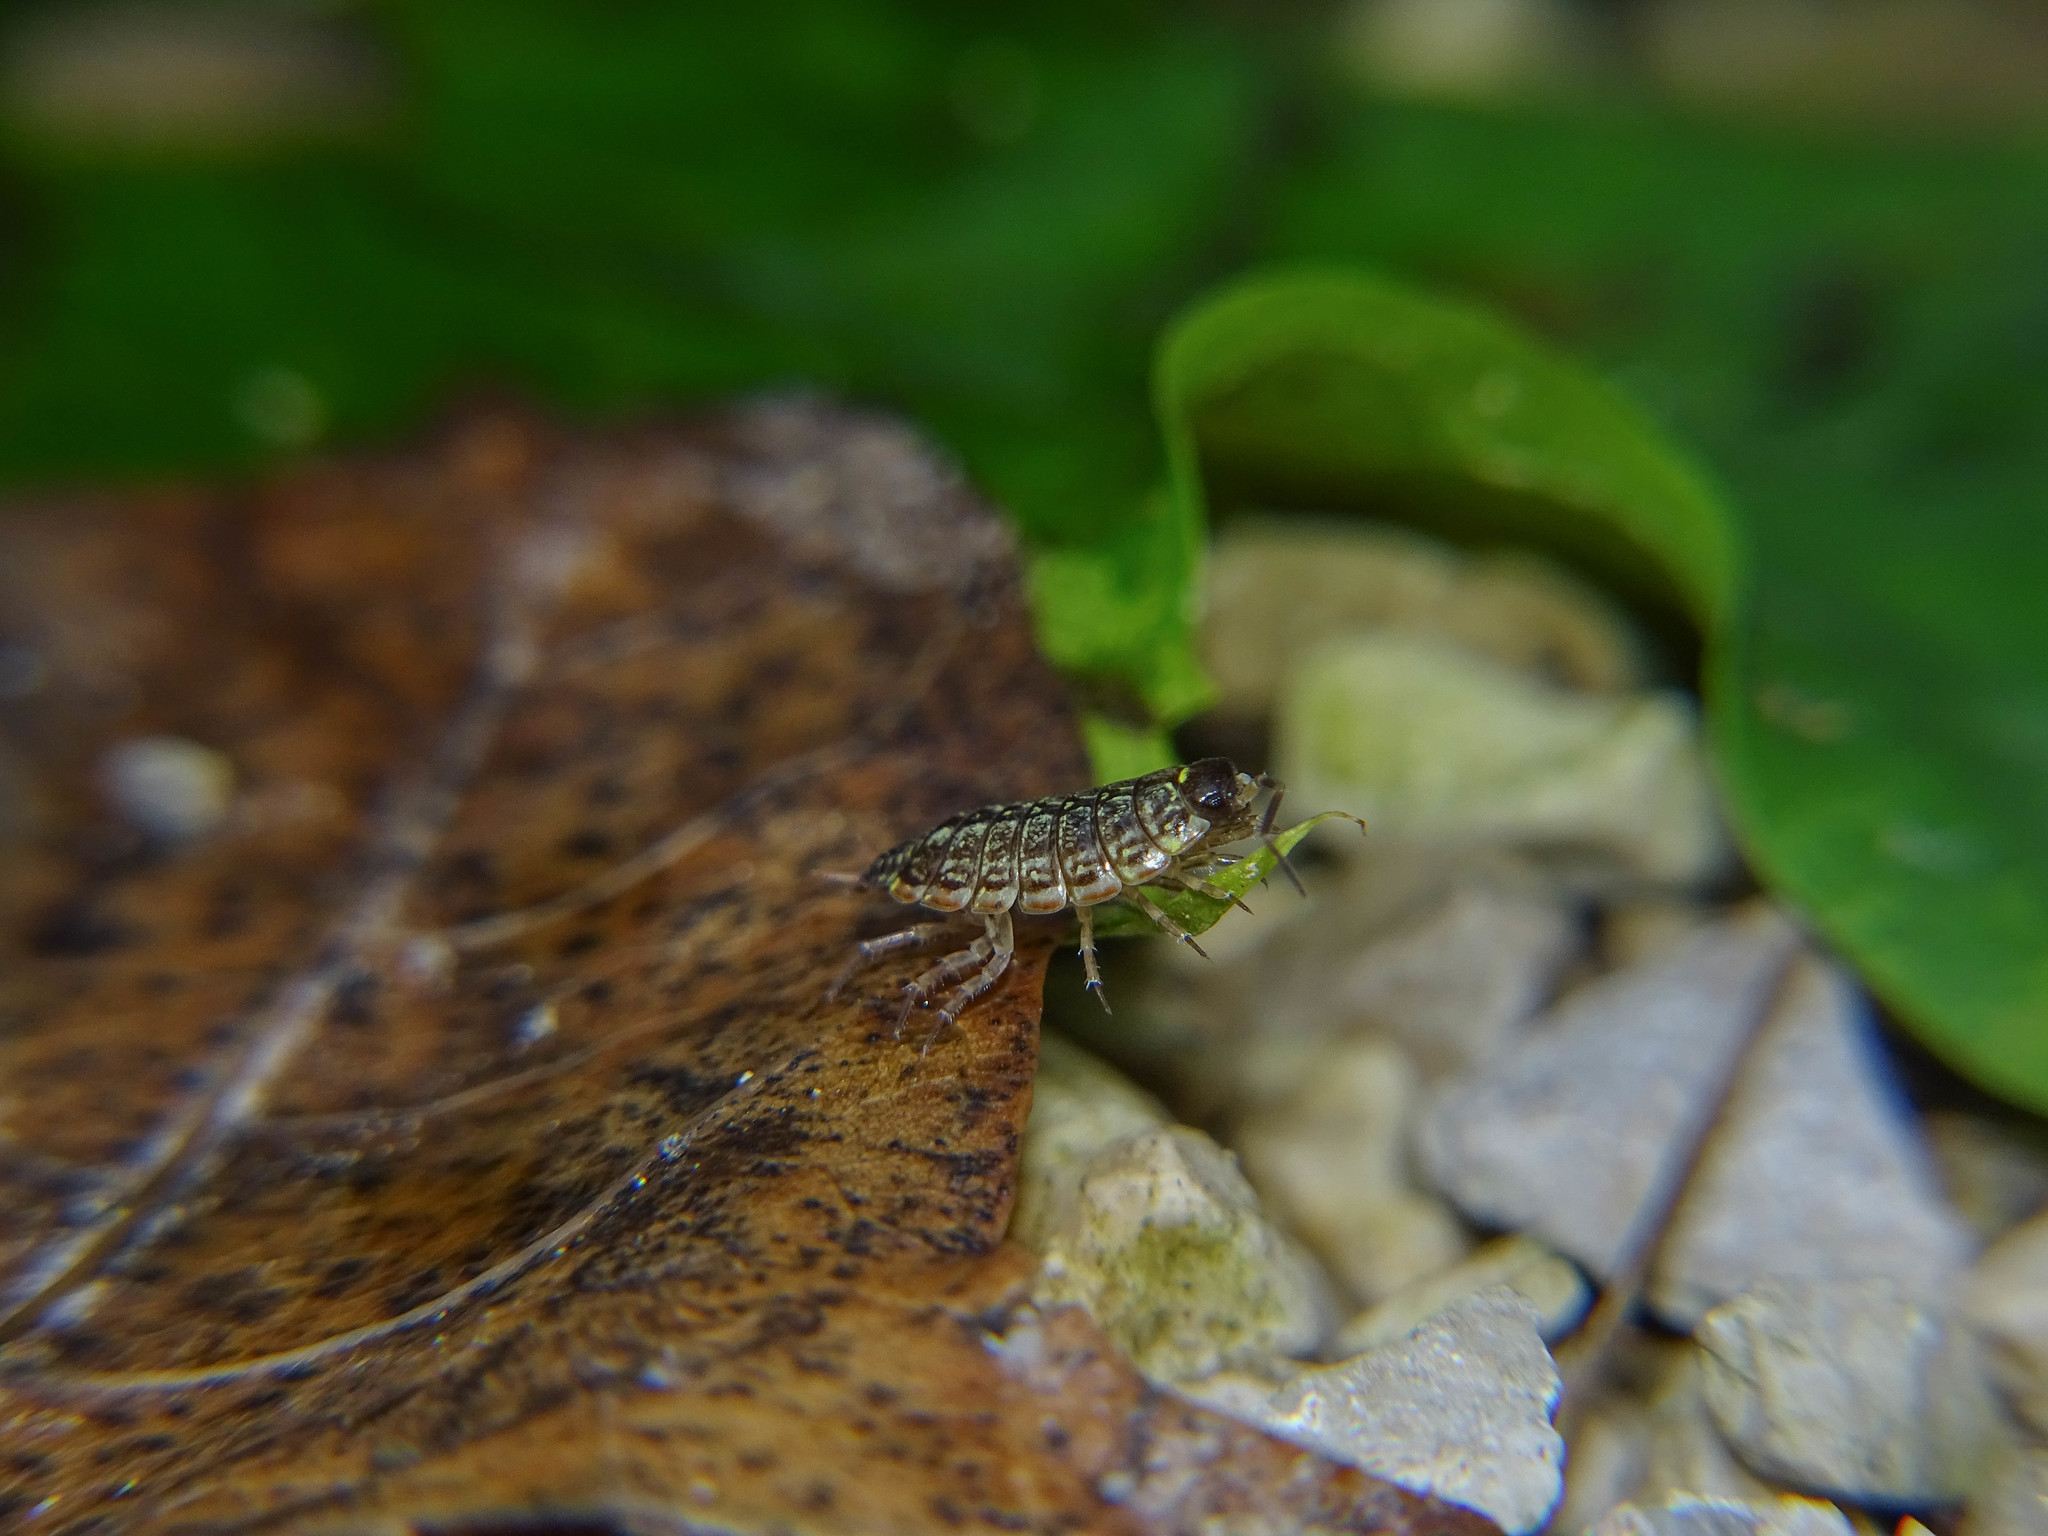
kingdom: Animalia
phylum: Arthropoda
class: Malacostraca
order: Isopoda
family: Philosciidae
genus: Philoscia
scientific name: Philoscia muscorum
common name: Common striped woodlouse
